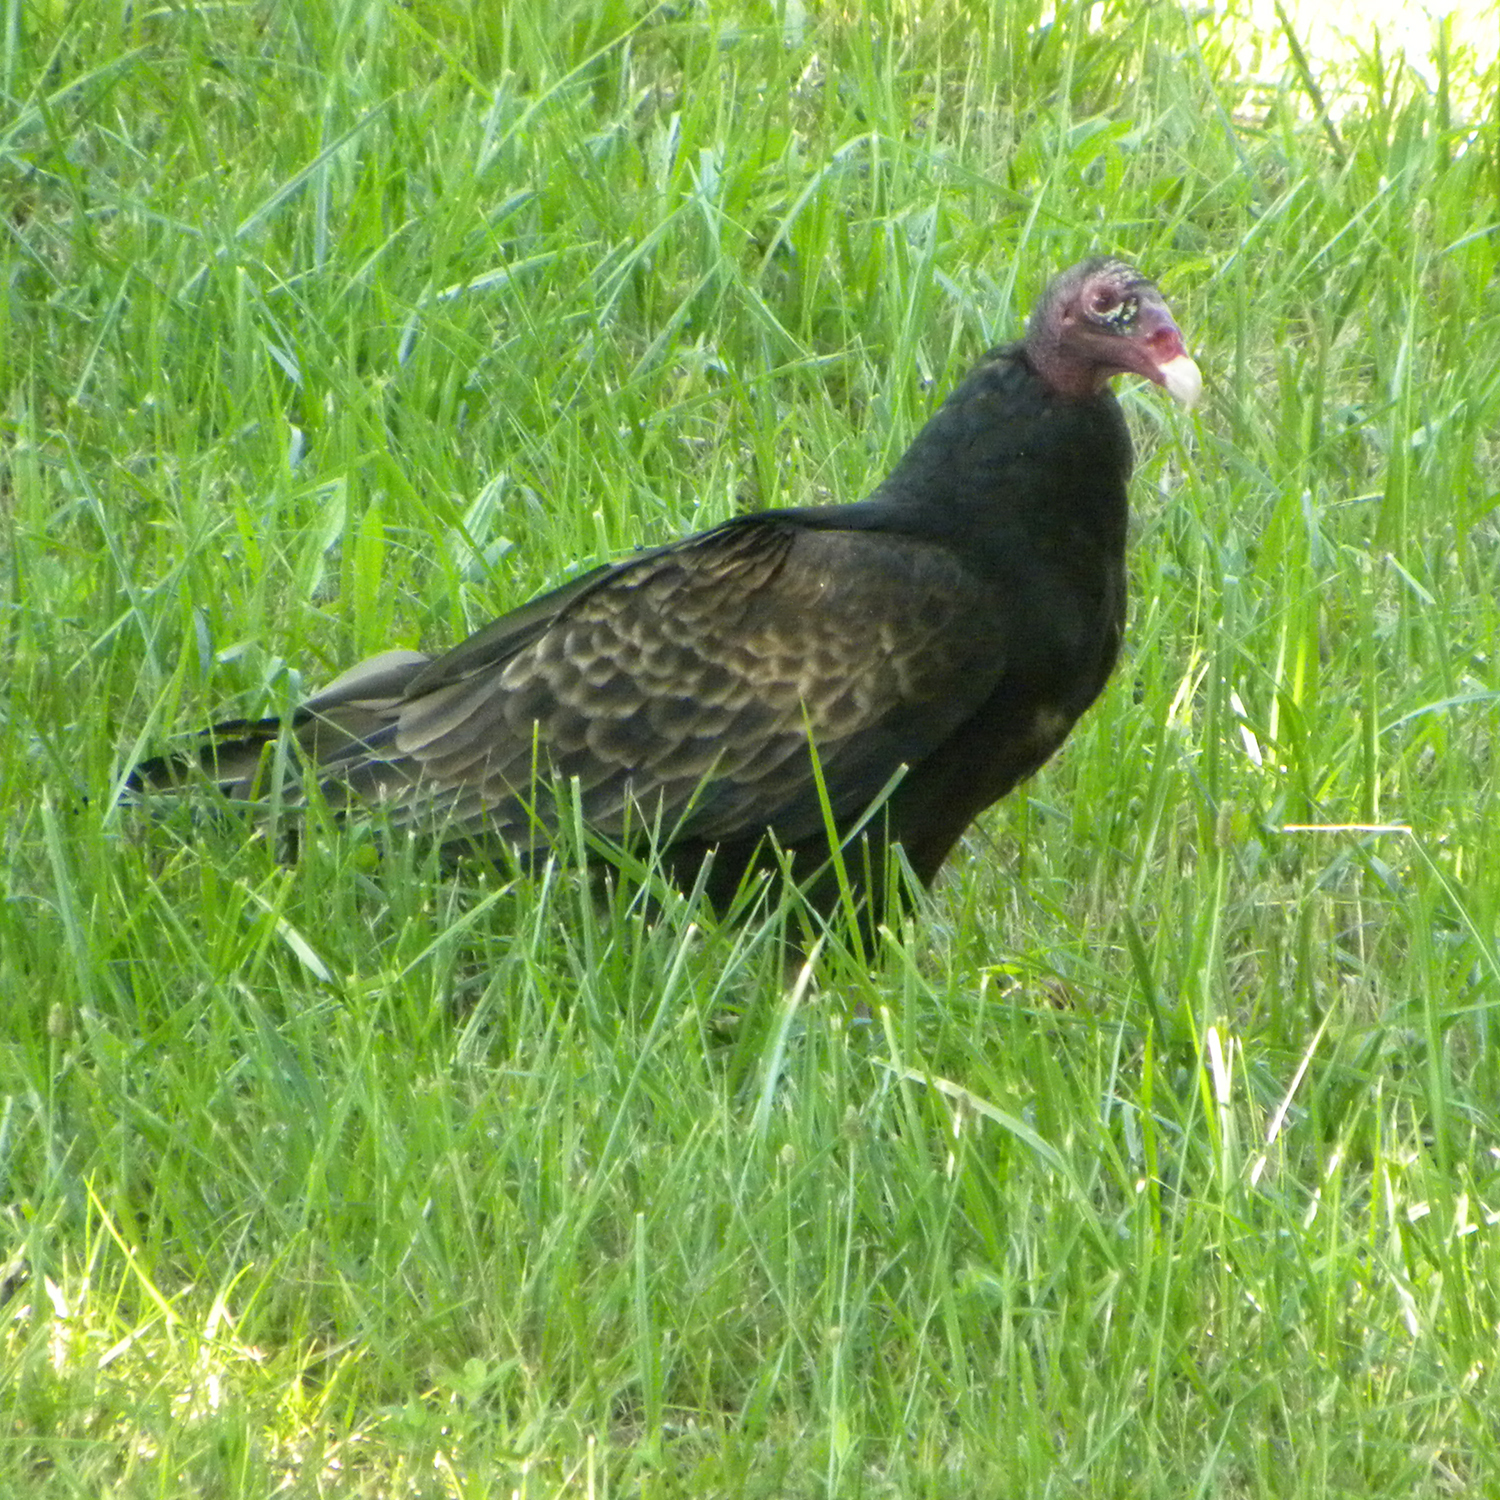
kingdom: Animalia
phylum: Chordata
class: Aves
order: Accipitriformes
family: Cathartidae
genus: Cathartes
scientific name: Cathartes aura
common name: Turkey vulture
